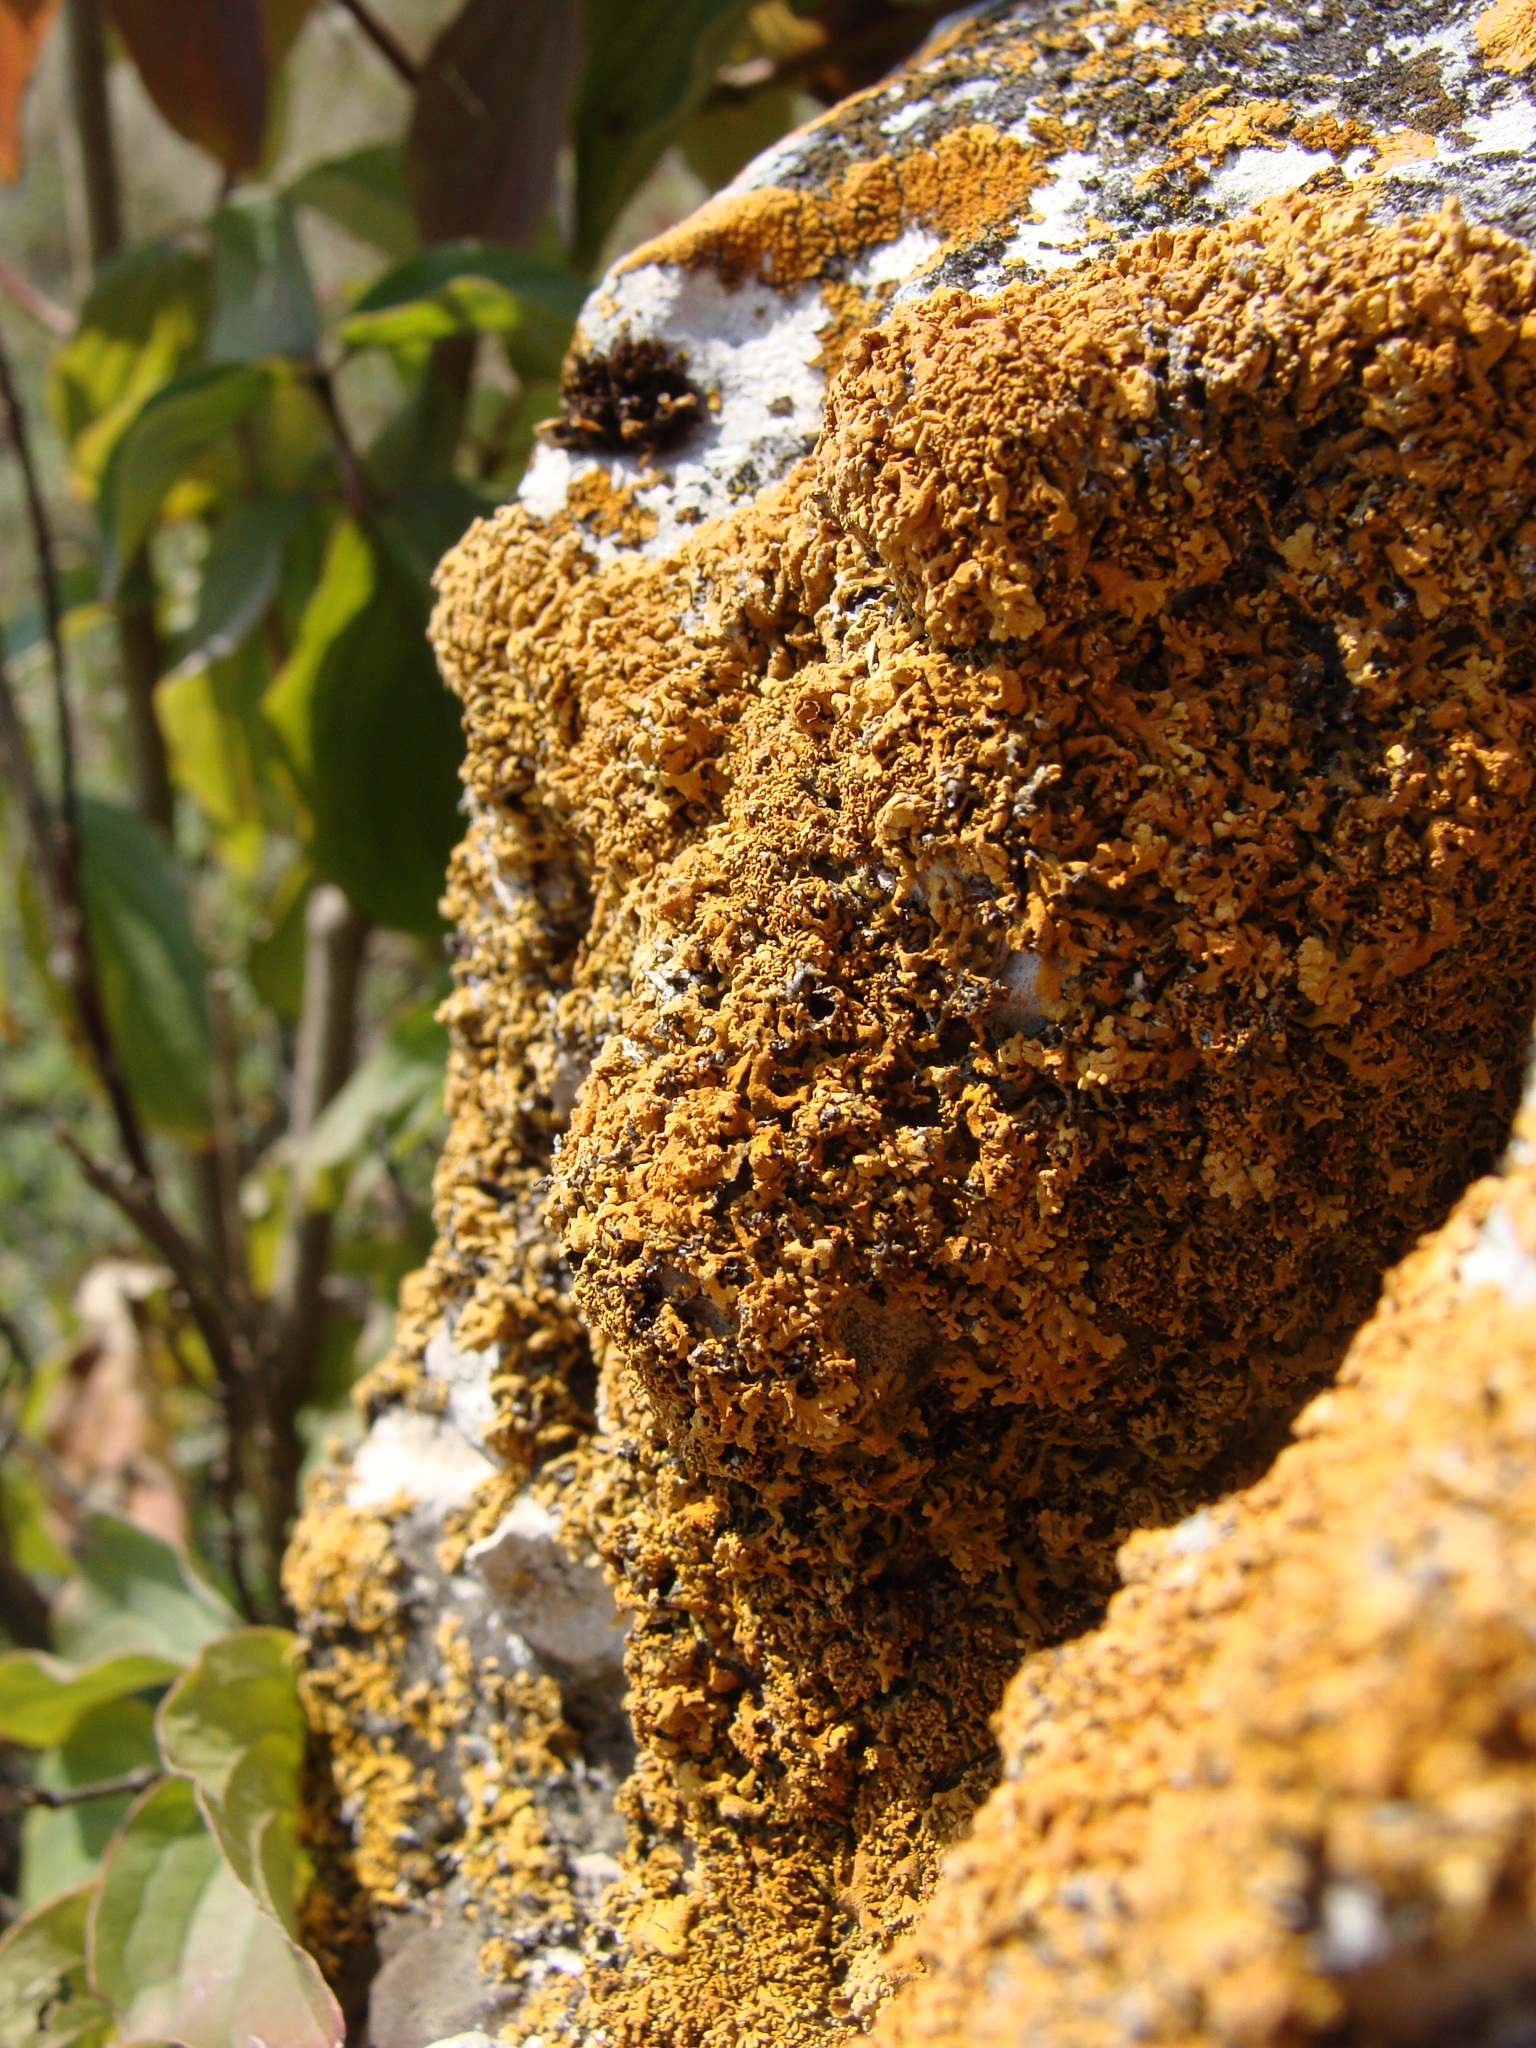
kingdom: Fungi
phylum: Ascomycota
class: Lecanoromycetes
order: Teloschistales
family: Teloschistaceae
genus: Zeroviella
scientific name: Zeroviella papillifera
